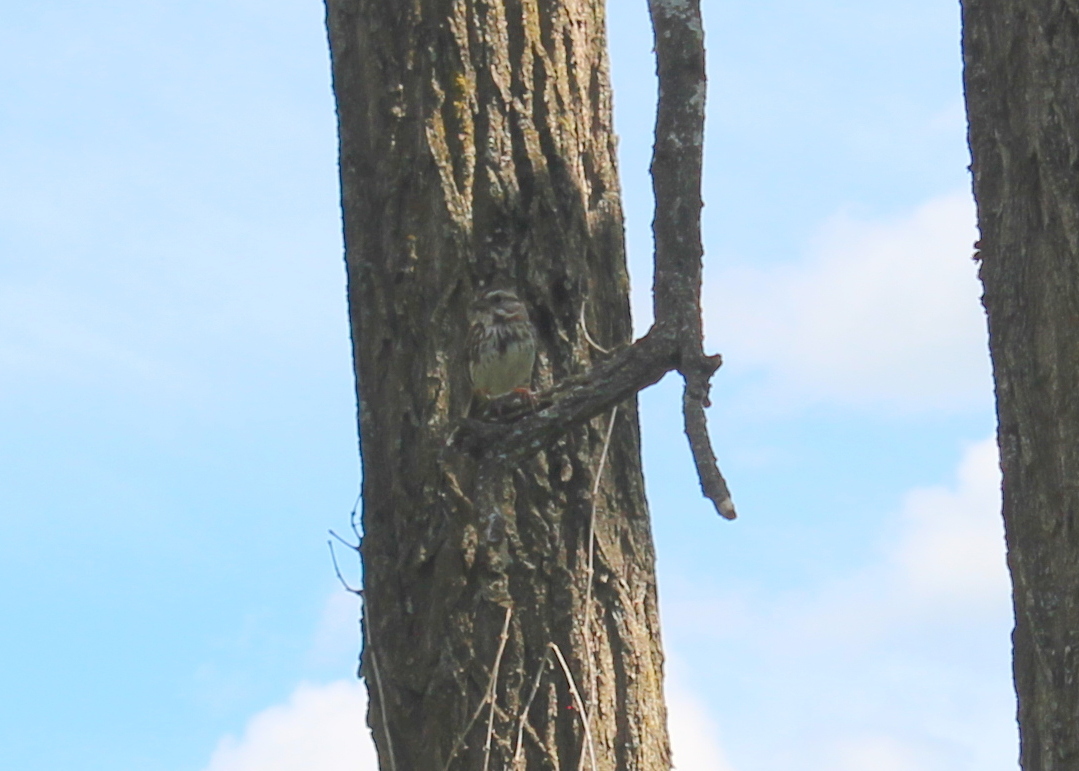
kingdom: Animalia
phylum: Chordata
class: Aves
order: Passeriformes
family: Passerellidae
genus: Melospiza
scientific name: Melospiza melodia
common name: Song sparrow
